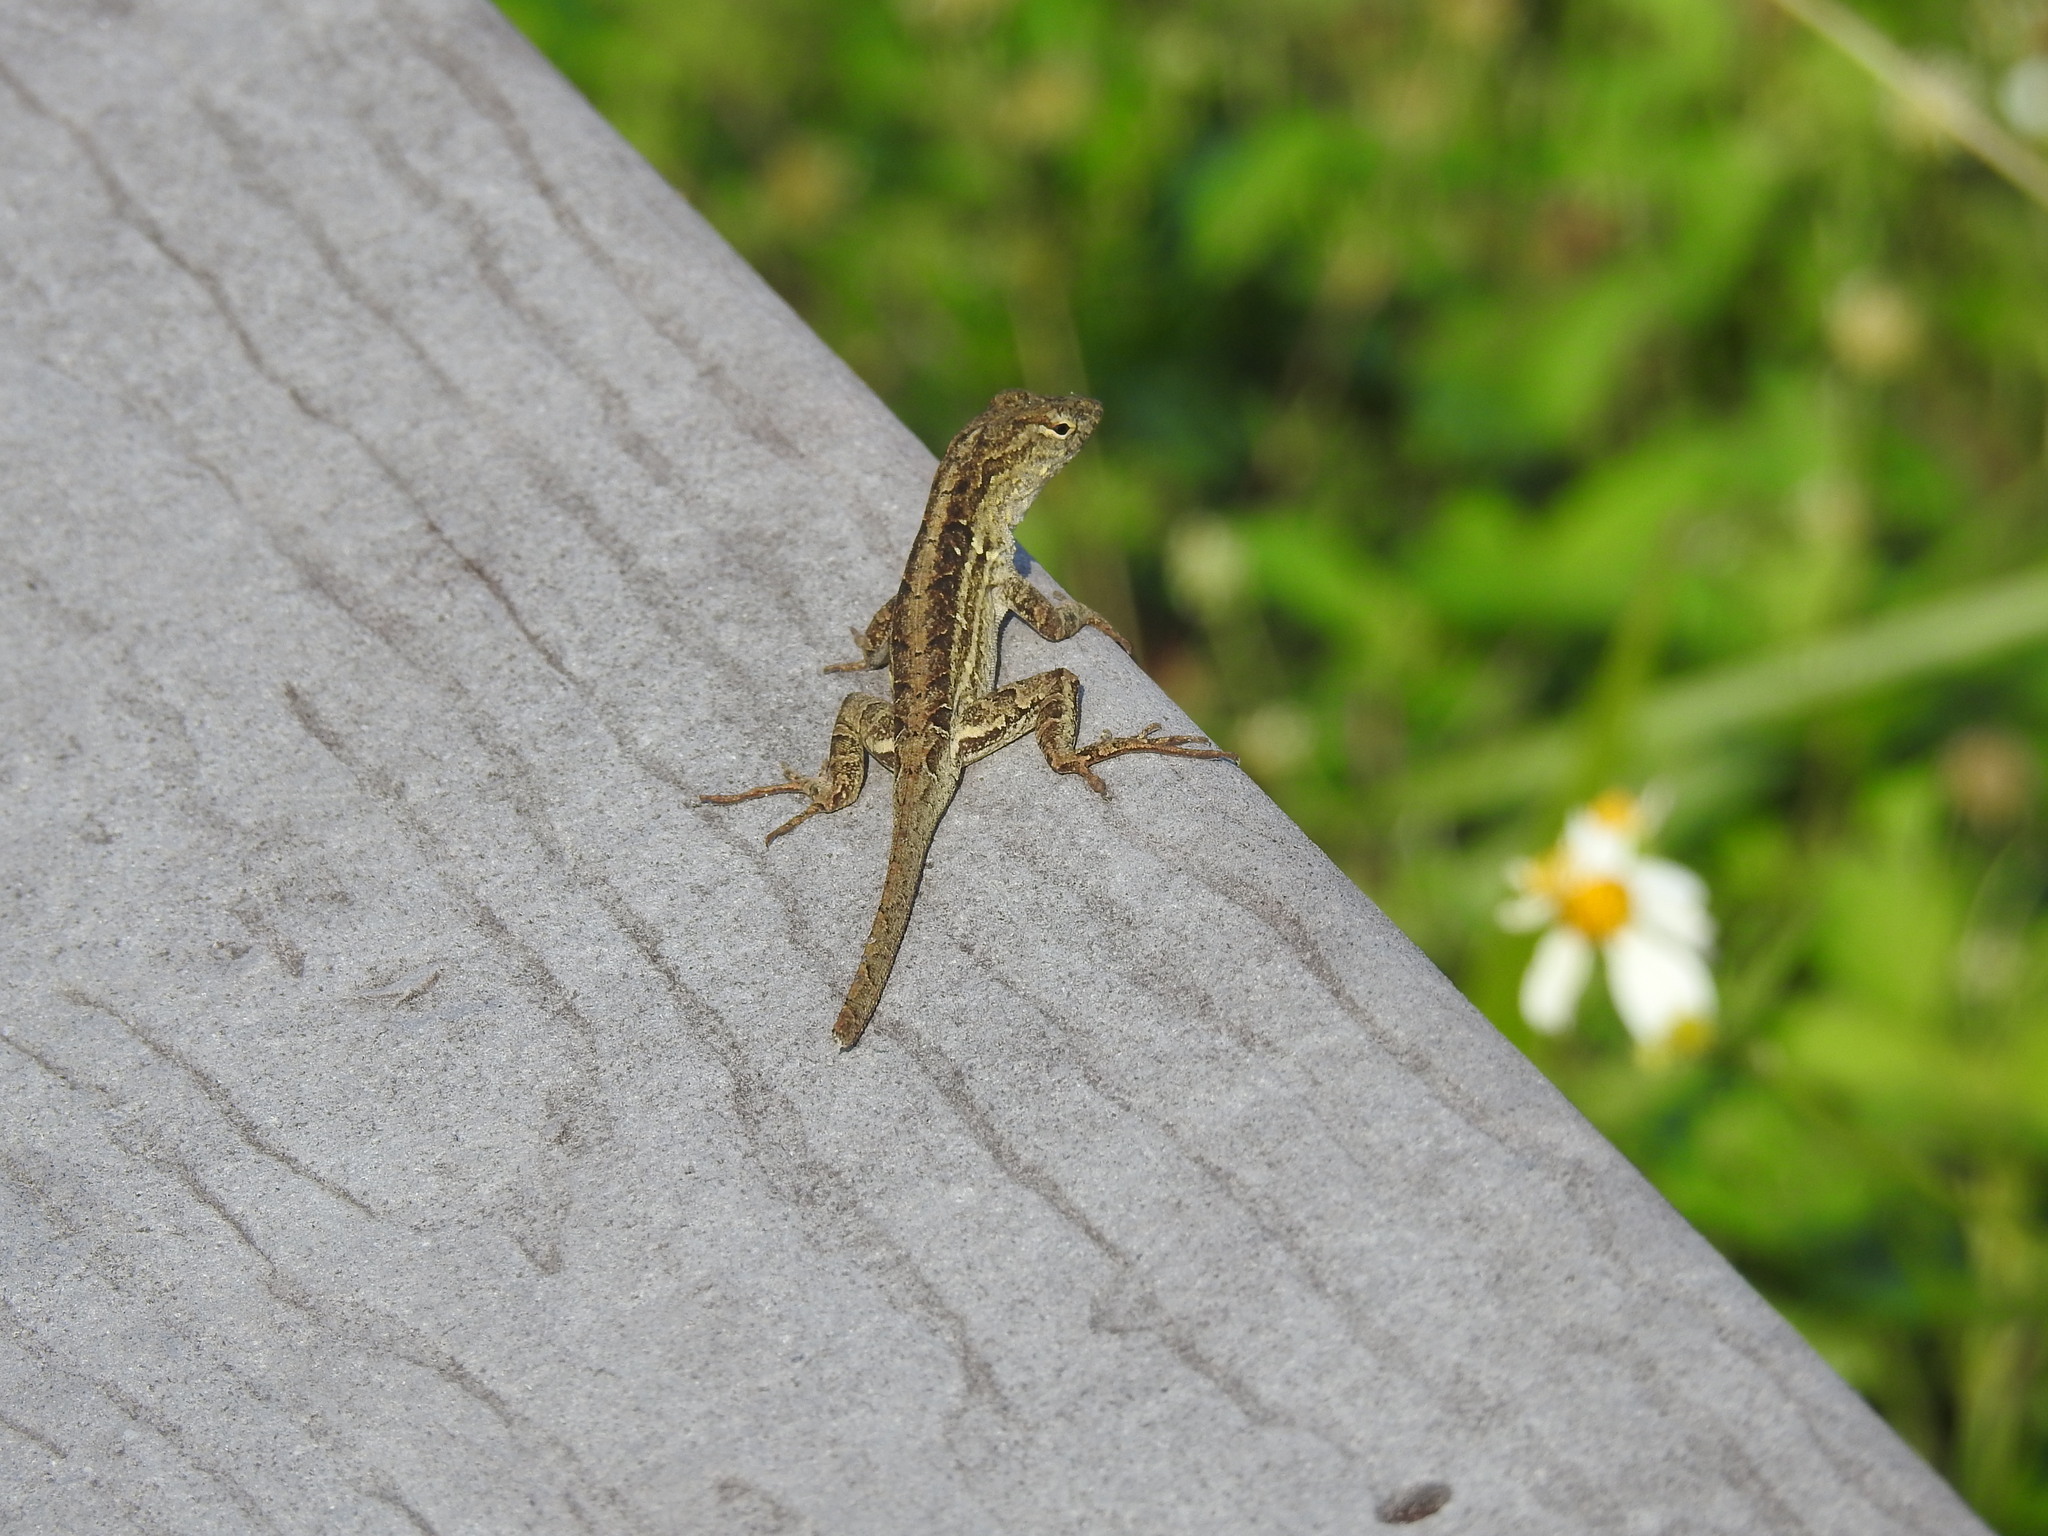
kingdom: Animalia
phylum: Chordata
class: Squamata
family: Dactyloidae
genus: Anolis
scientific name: Anolis sagrei
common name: Brown anole
